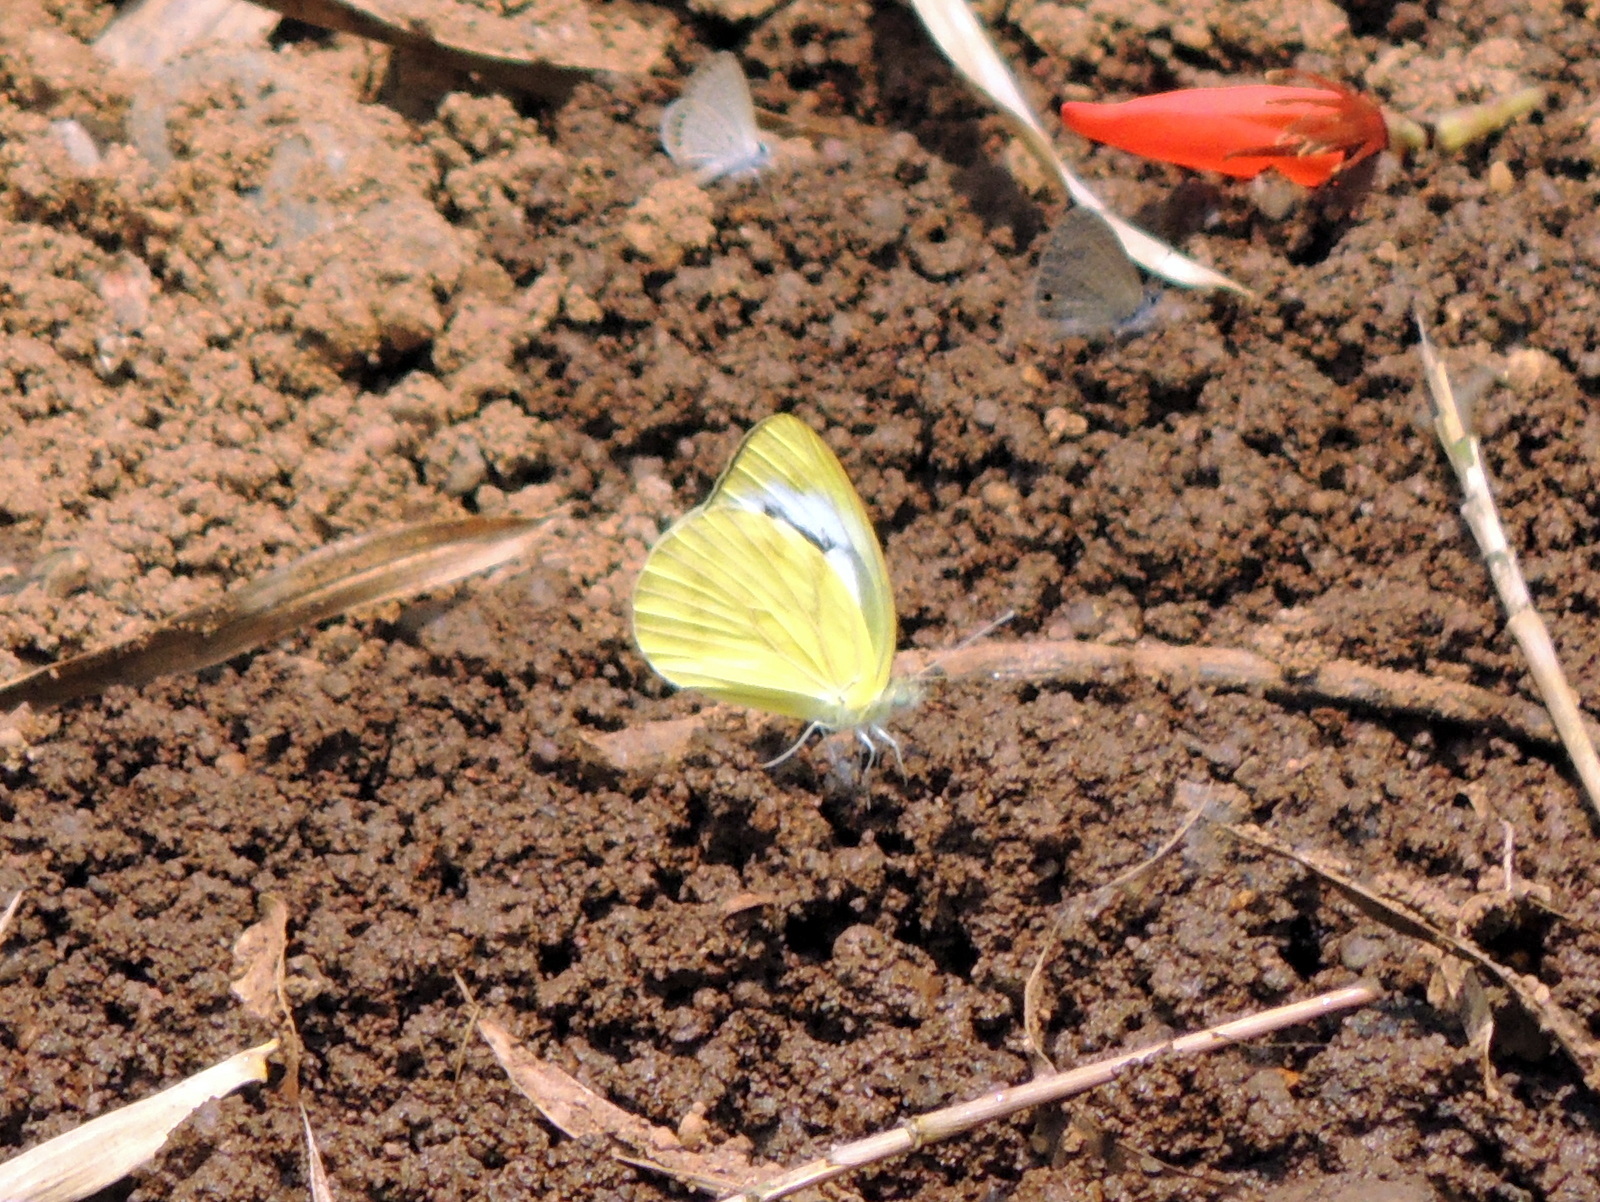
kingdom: Animalia
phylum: Arthropoda
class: Insecta
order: Lepidoptera
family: Pieridae
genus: Cepora
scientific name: Cepora nerissa
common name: Common gull
